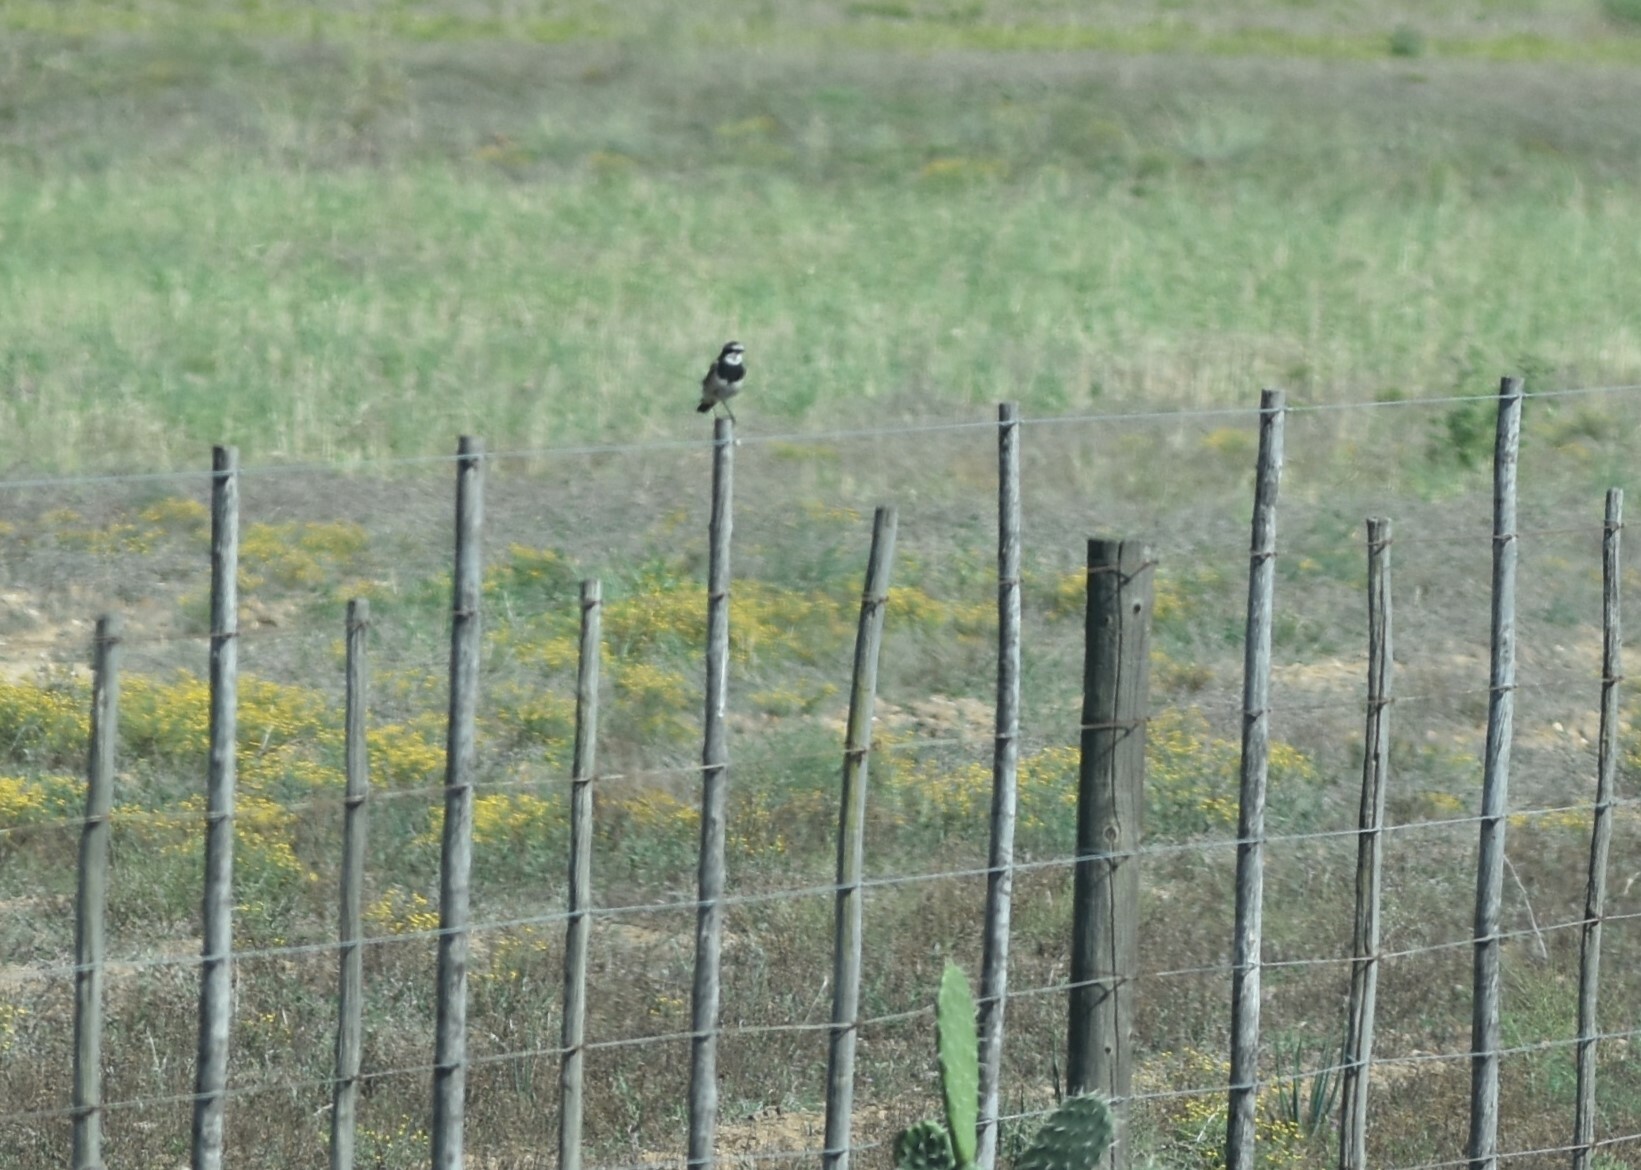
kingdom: Animalia
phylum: Chordata
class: Aves
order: Passeriformes
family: Muscicapidae
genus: Oenanthe
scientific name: Oenanthe pileata
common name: Capped wheatear
